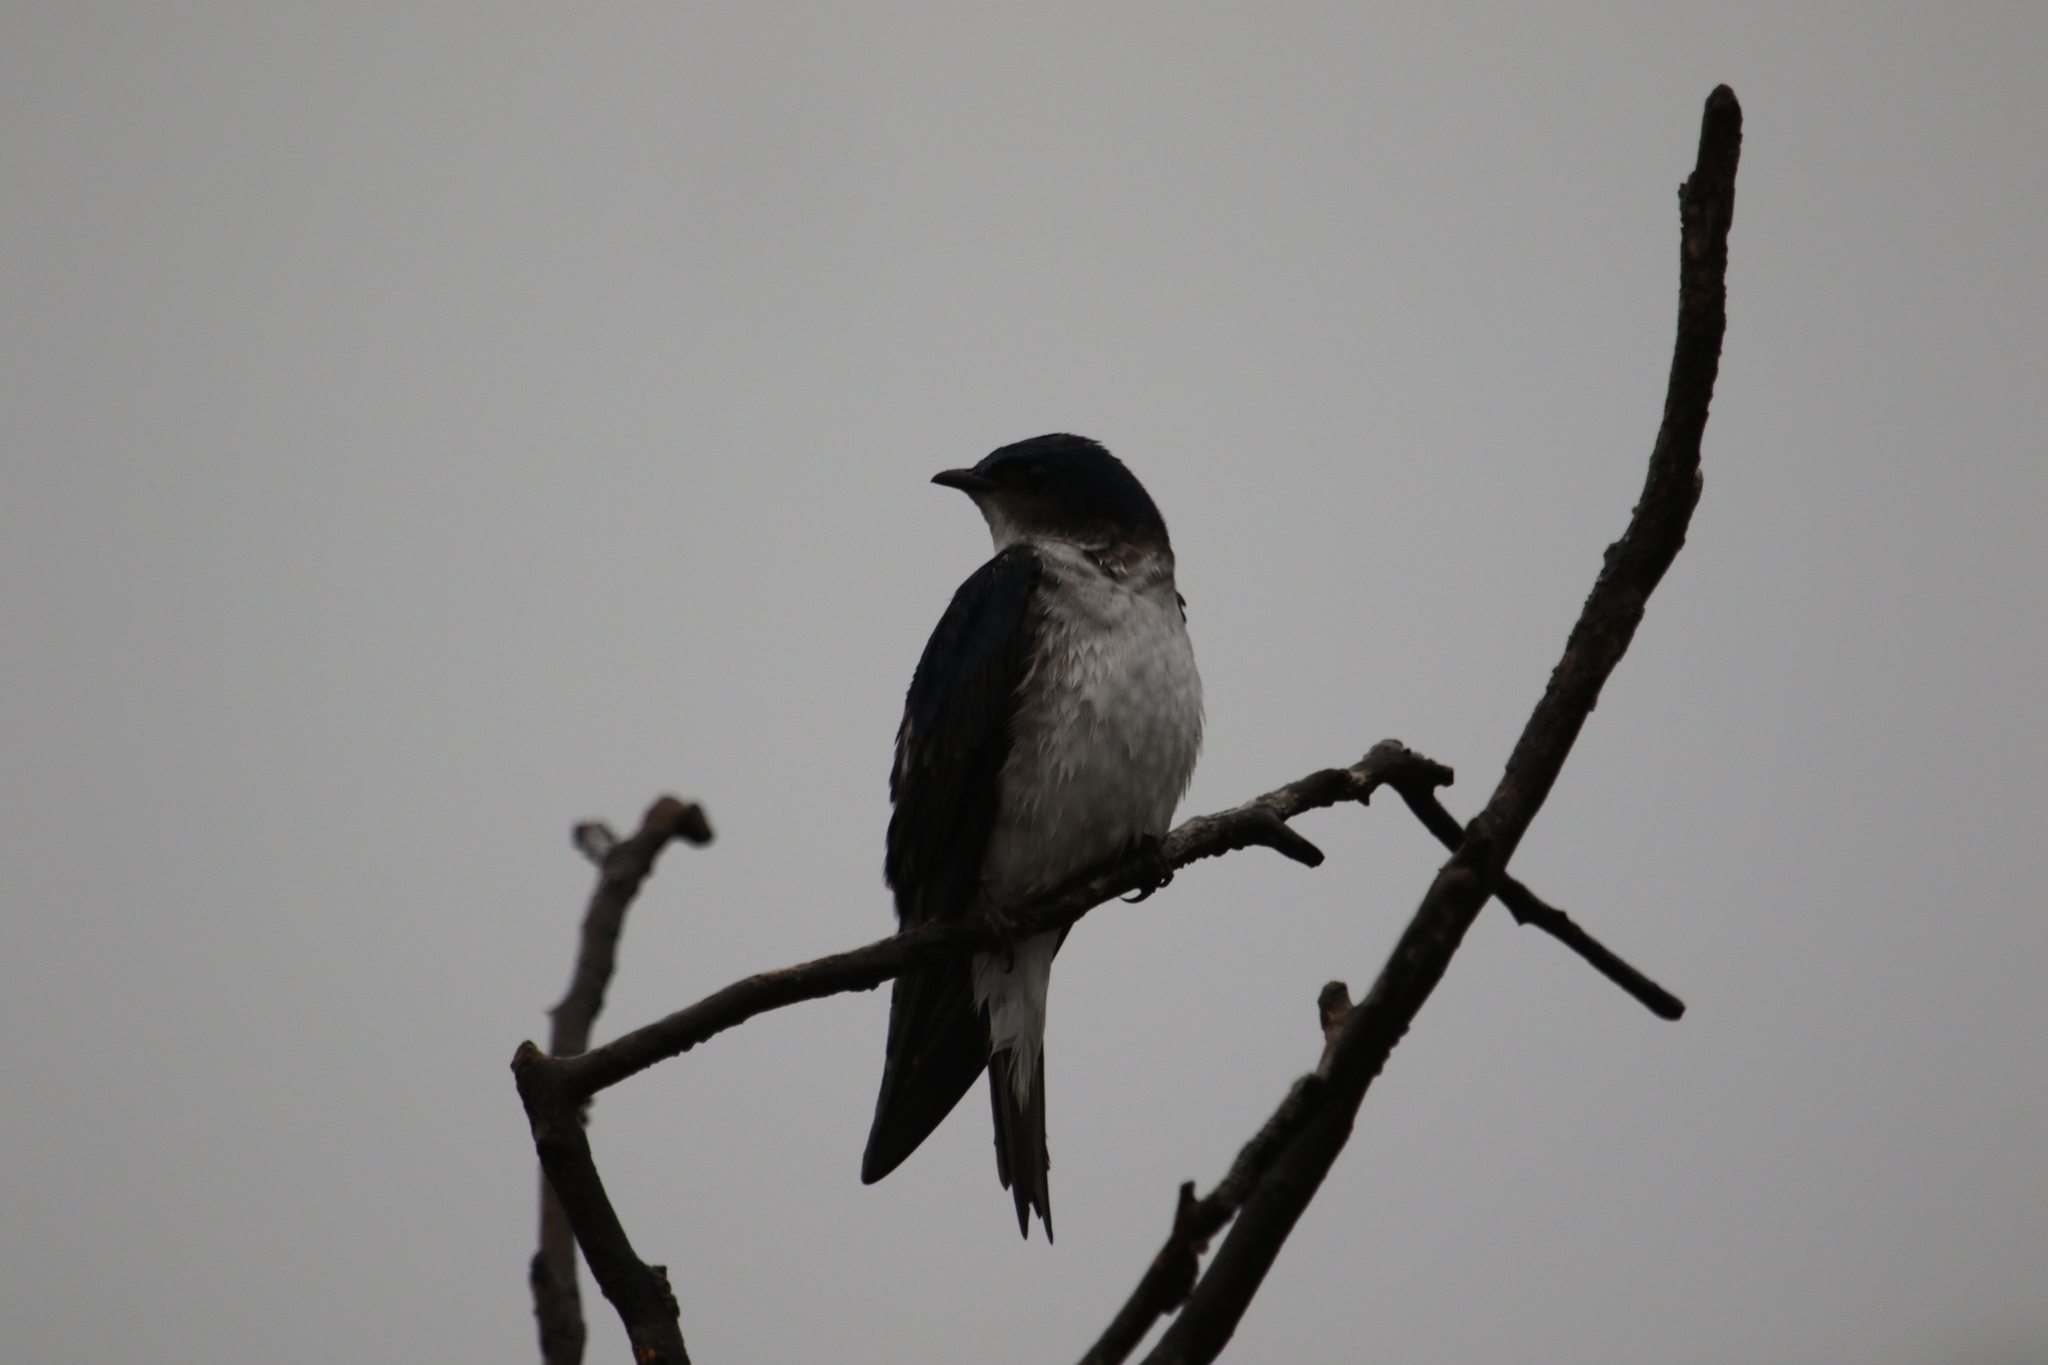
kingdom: Animalia
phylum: Chordata
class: Aves
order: Passeriformes
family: Hirundinidae
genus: Progne
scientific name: Progne chalybea
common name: Grey-breasted martin
